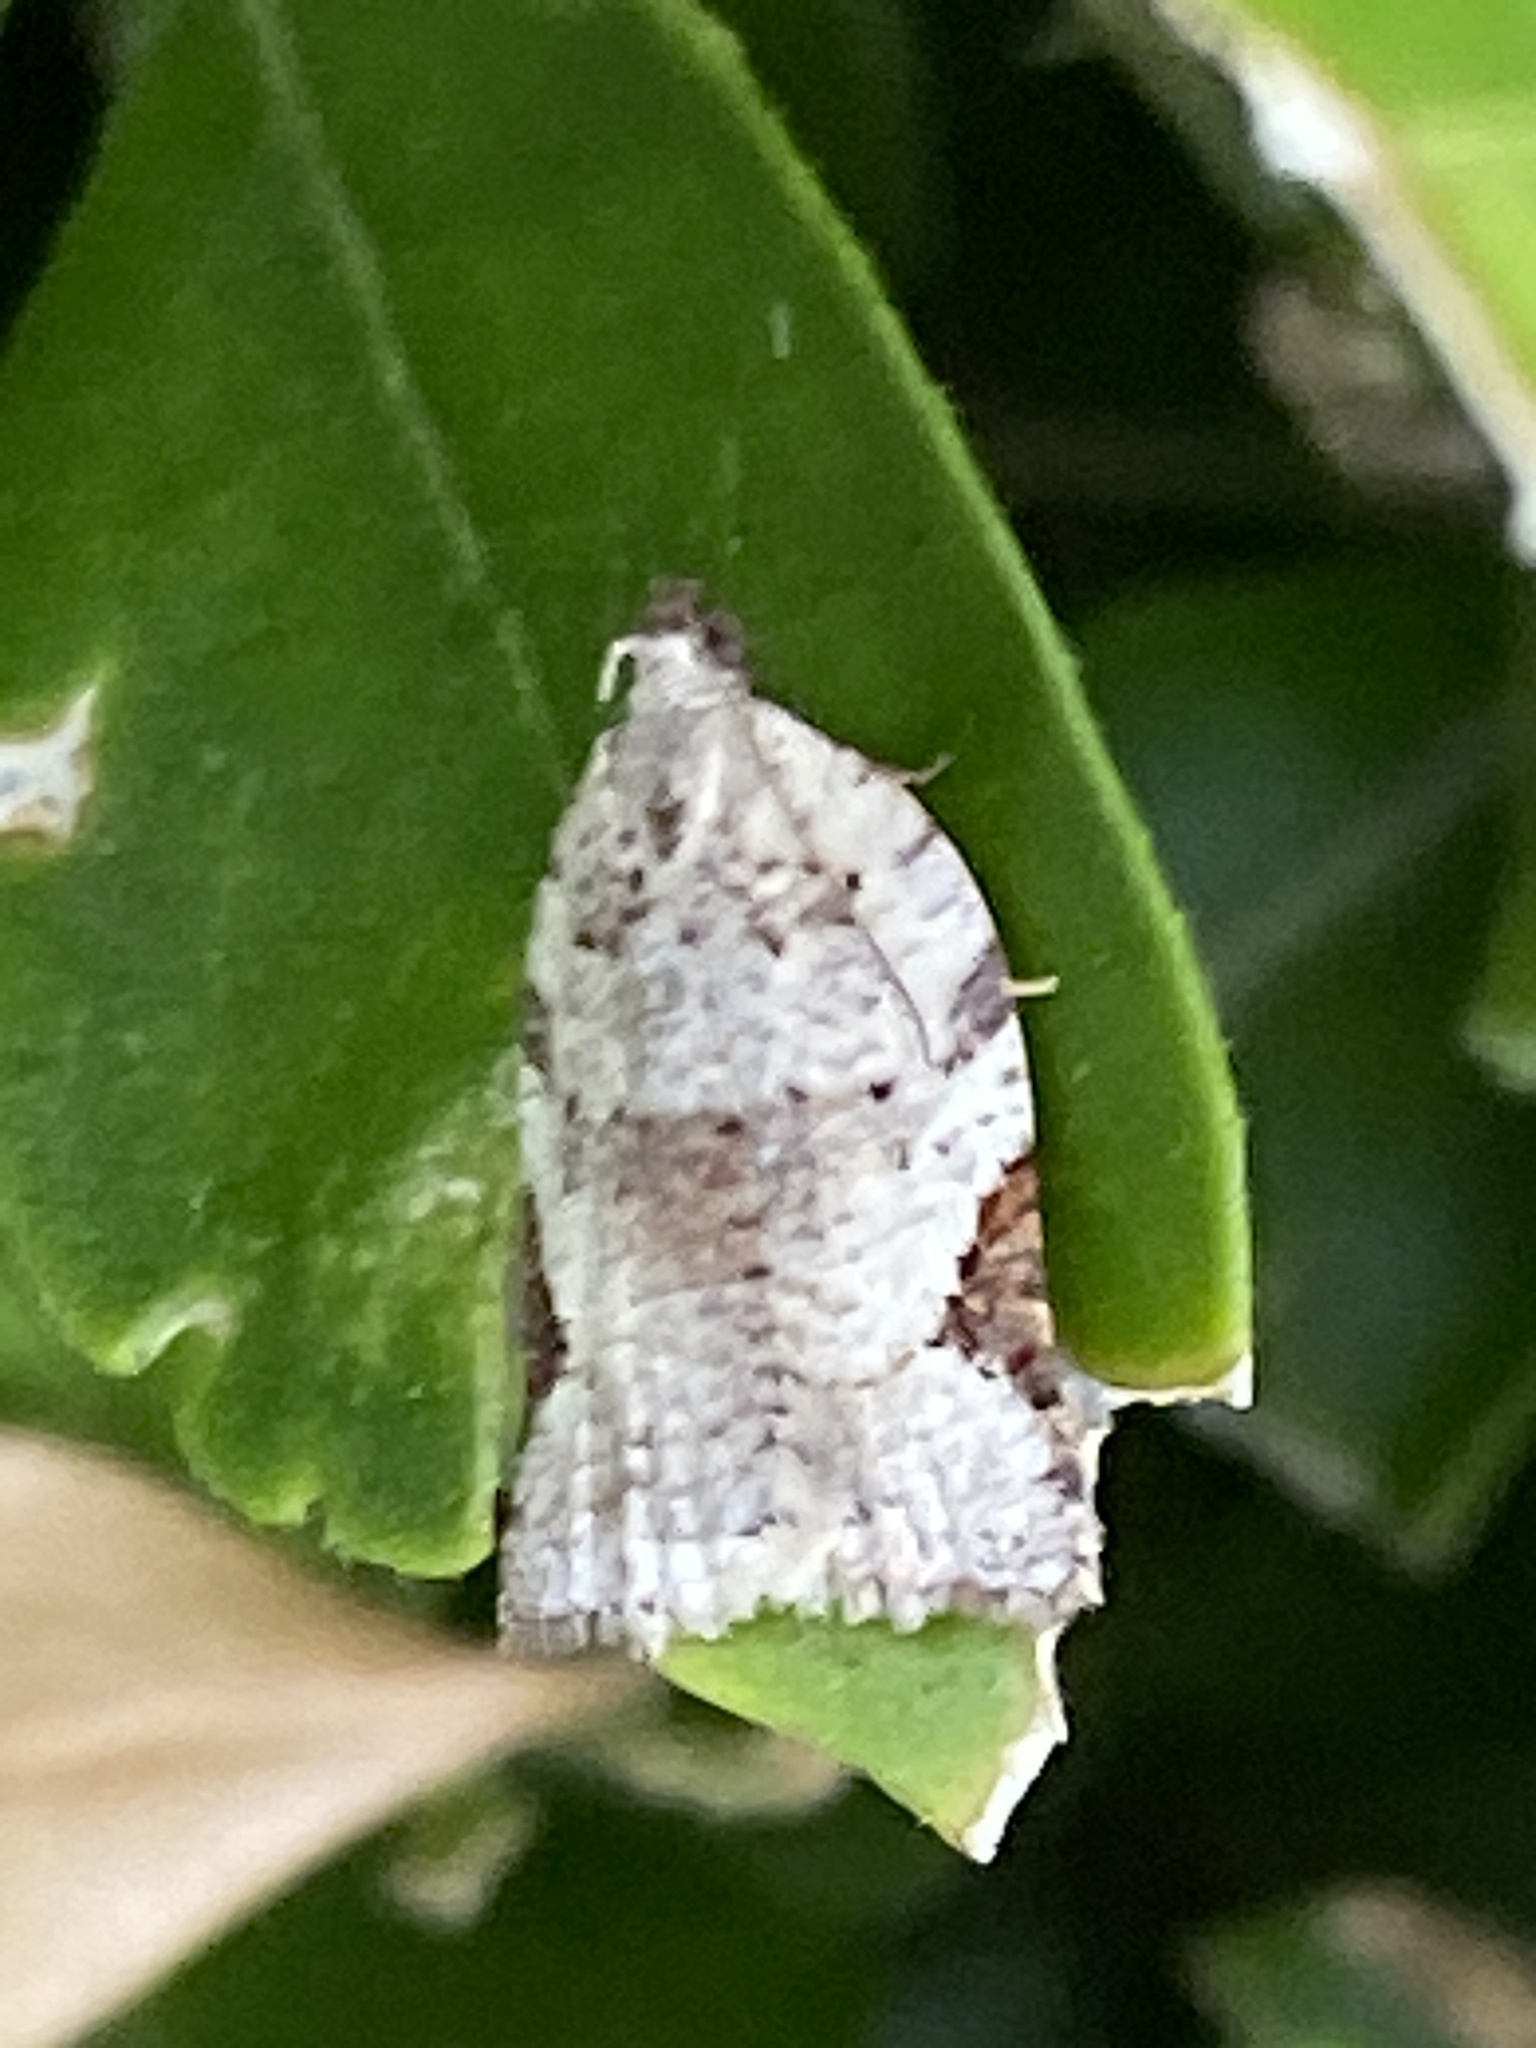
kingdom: Animalia
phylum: Arthropoda
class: Insecta
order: Lepidoptera
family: Tortricidae
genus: Anisogona
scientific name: Anisogona similana
